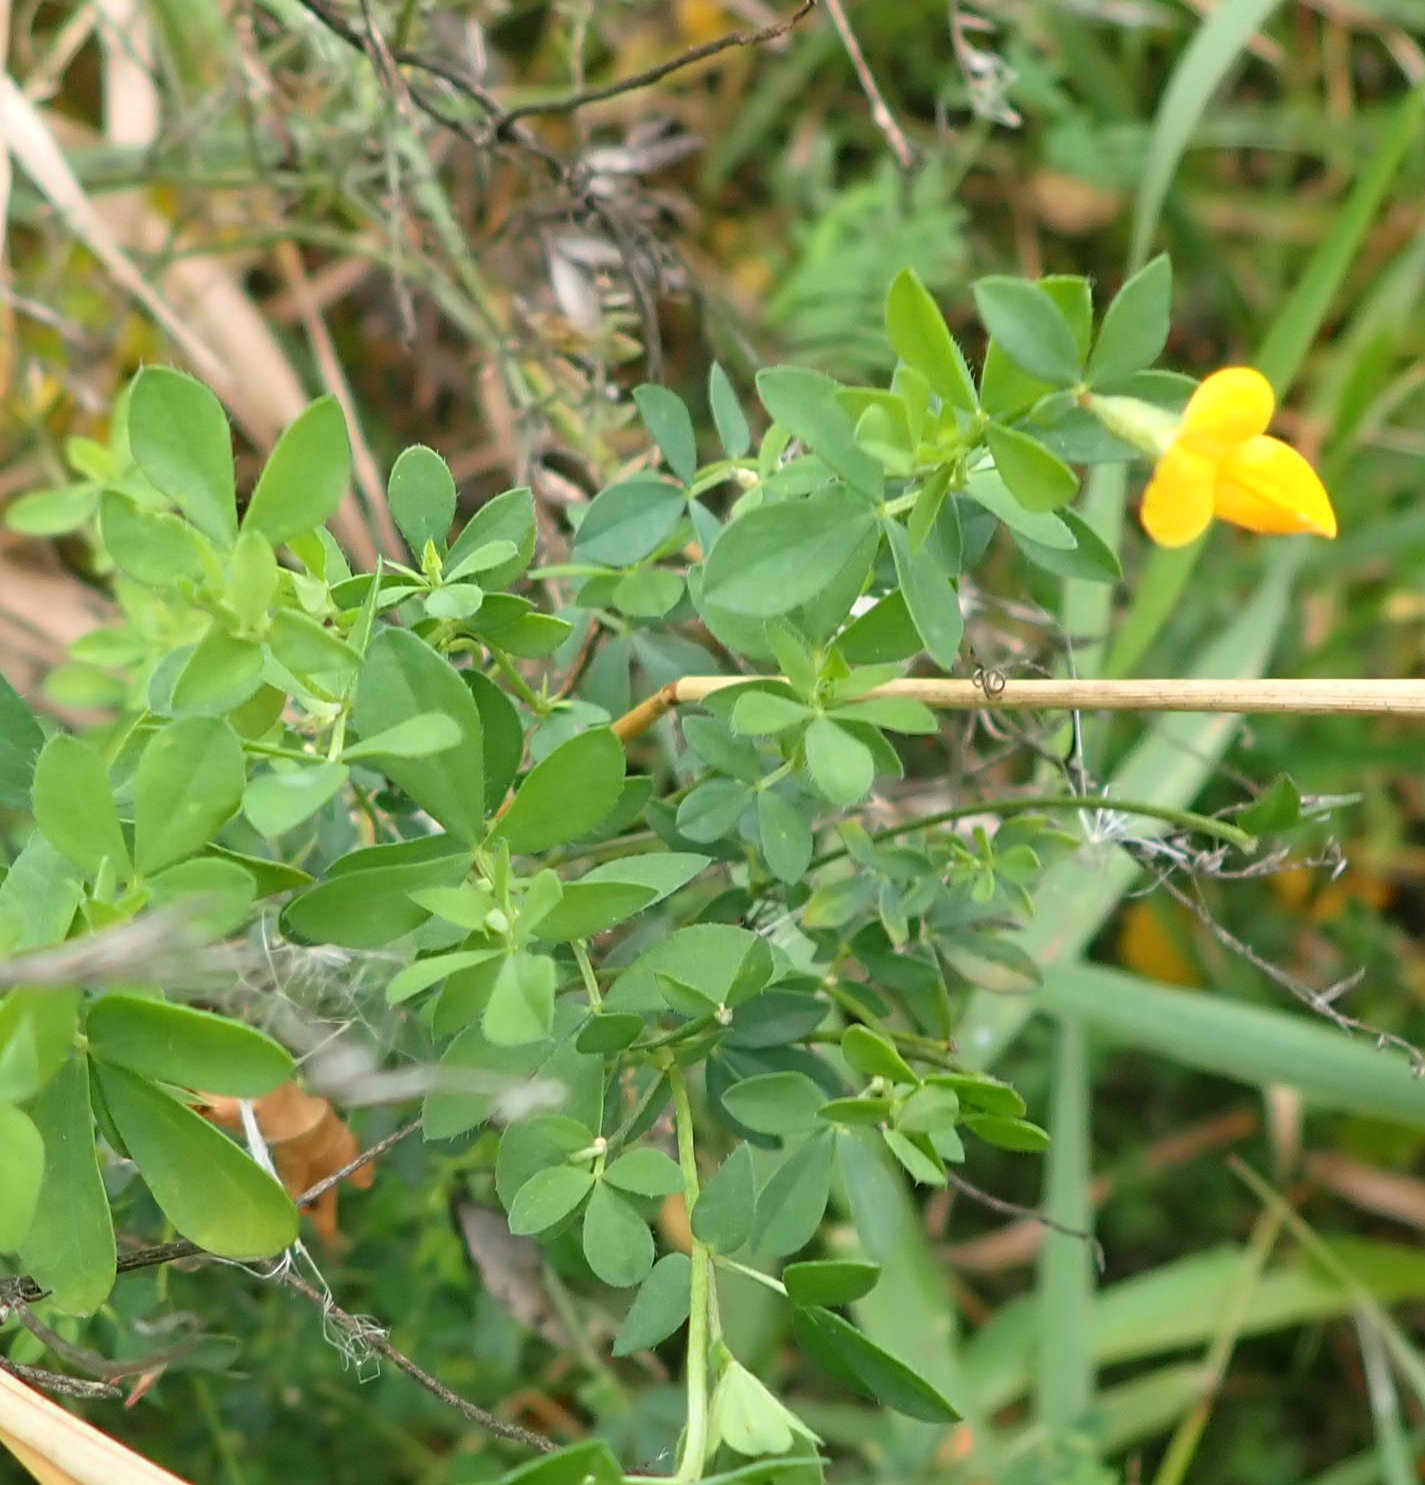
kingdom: Plantae
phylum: Tracheophyta
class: Magnoliopsida
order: Fabales
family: Fabaceae
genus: Lotus
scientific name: Lotus corniculatus
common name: Common bird's-foot-trefoil
